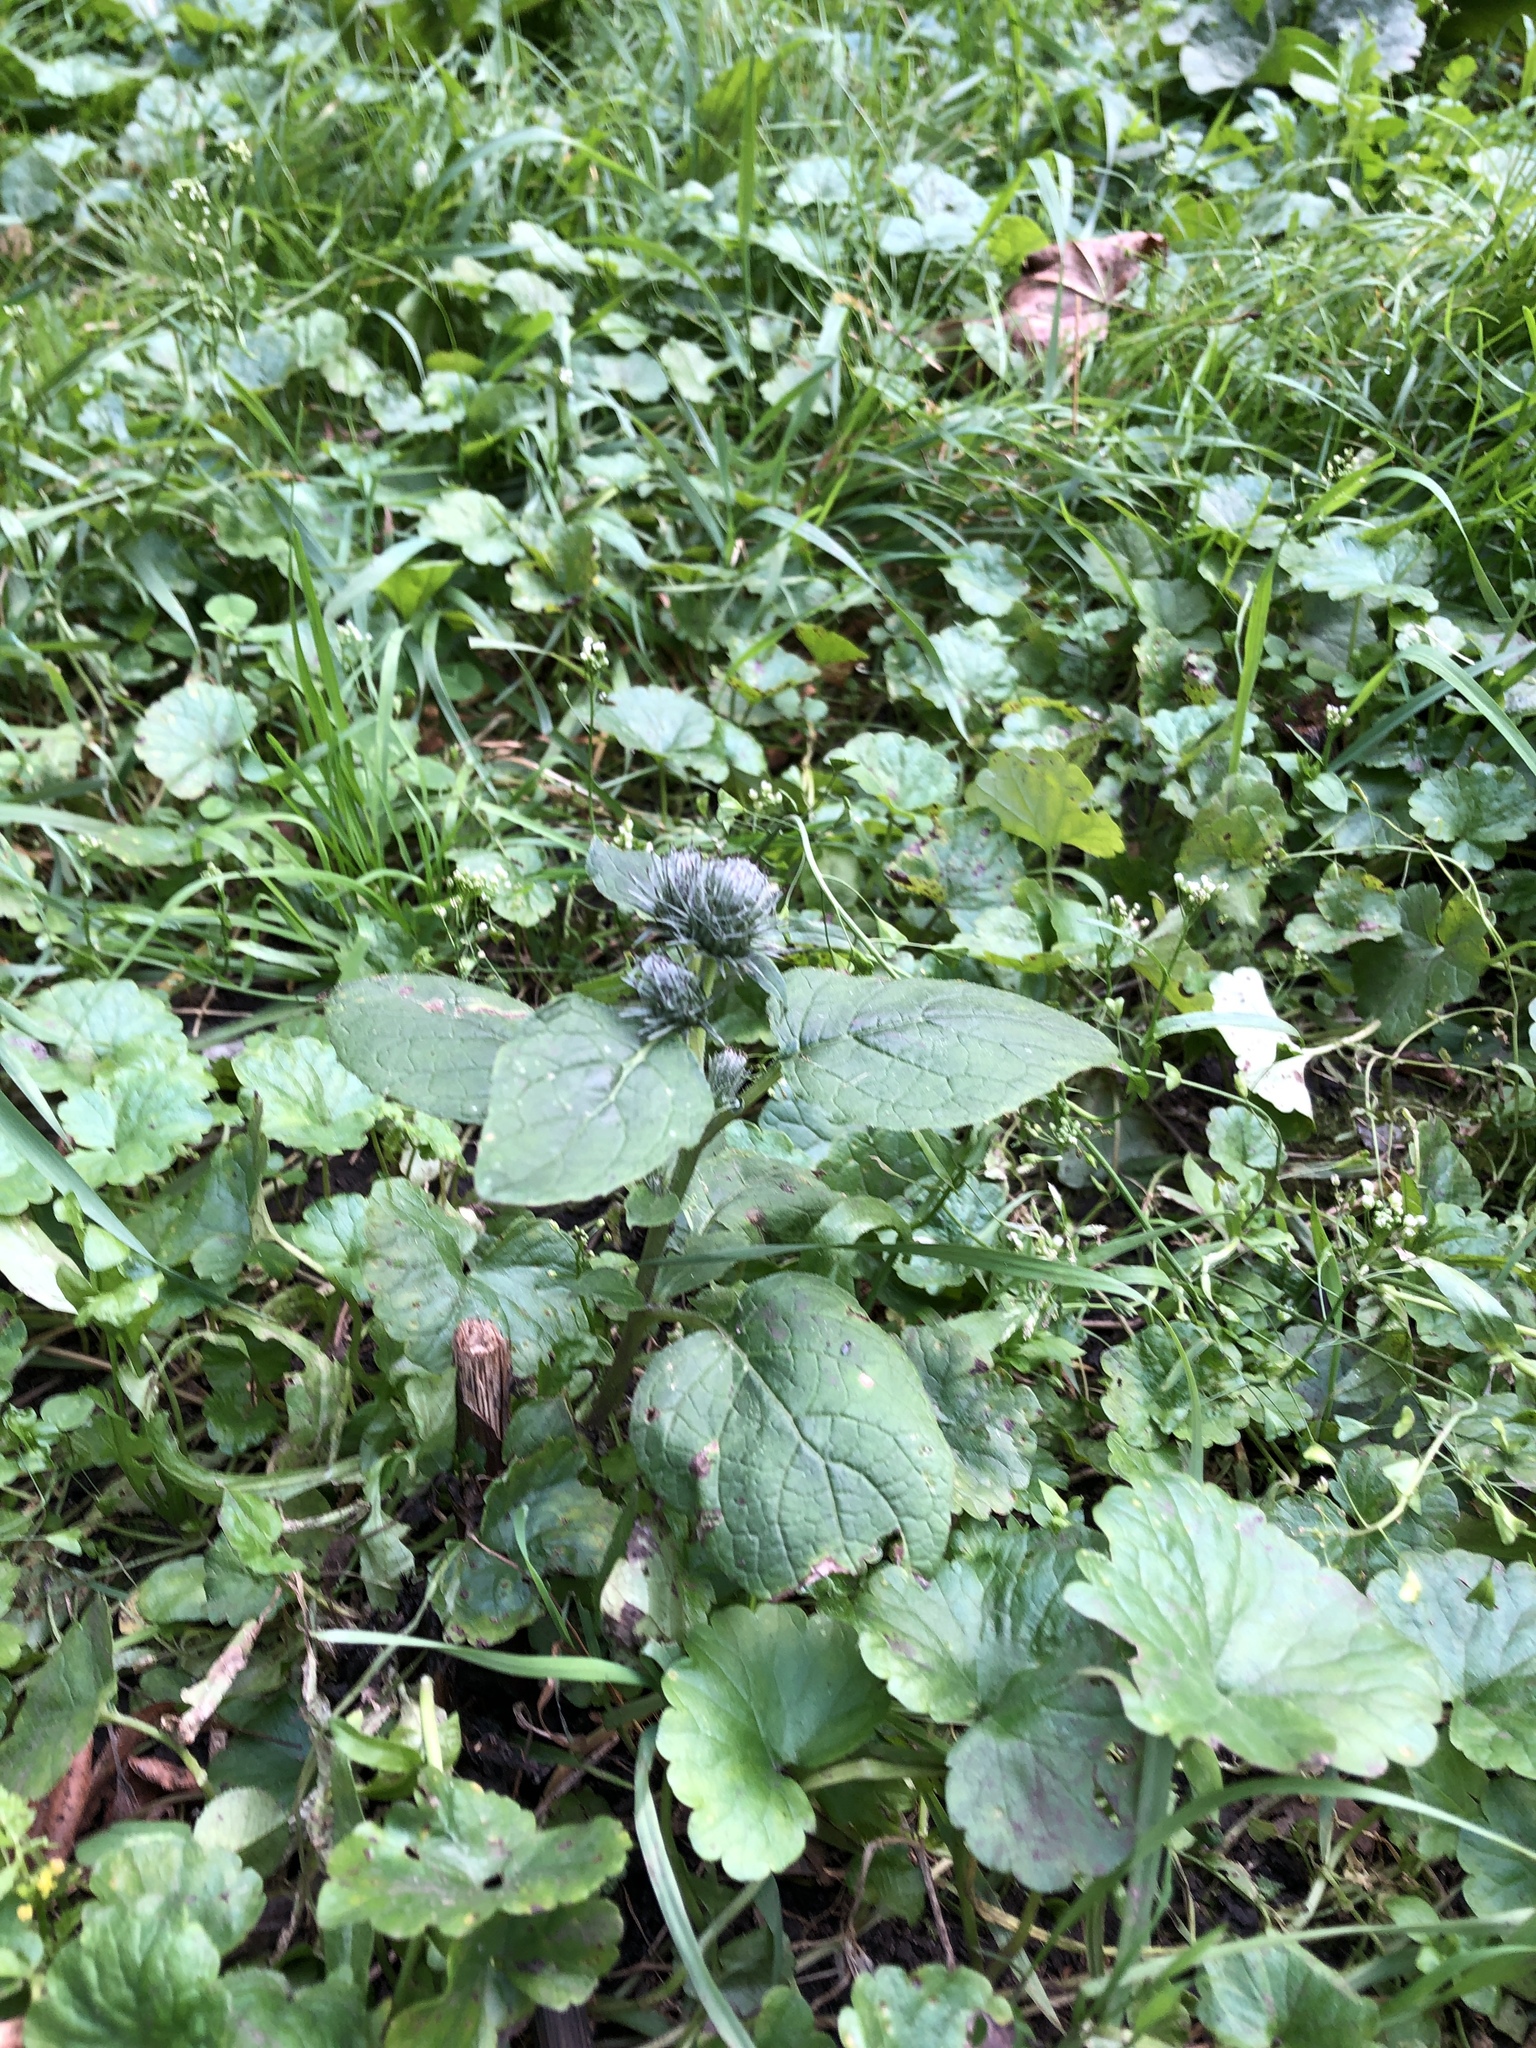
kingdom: Plantae
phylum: Tracheophyta
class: Magnoliopsida
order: Asterales
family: Asteraceae
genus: Arctium
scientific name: Arctium tomentosum
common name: Woolly burdock
